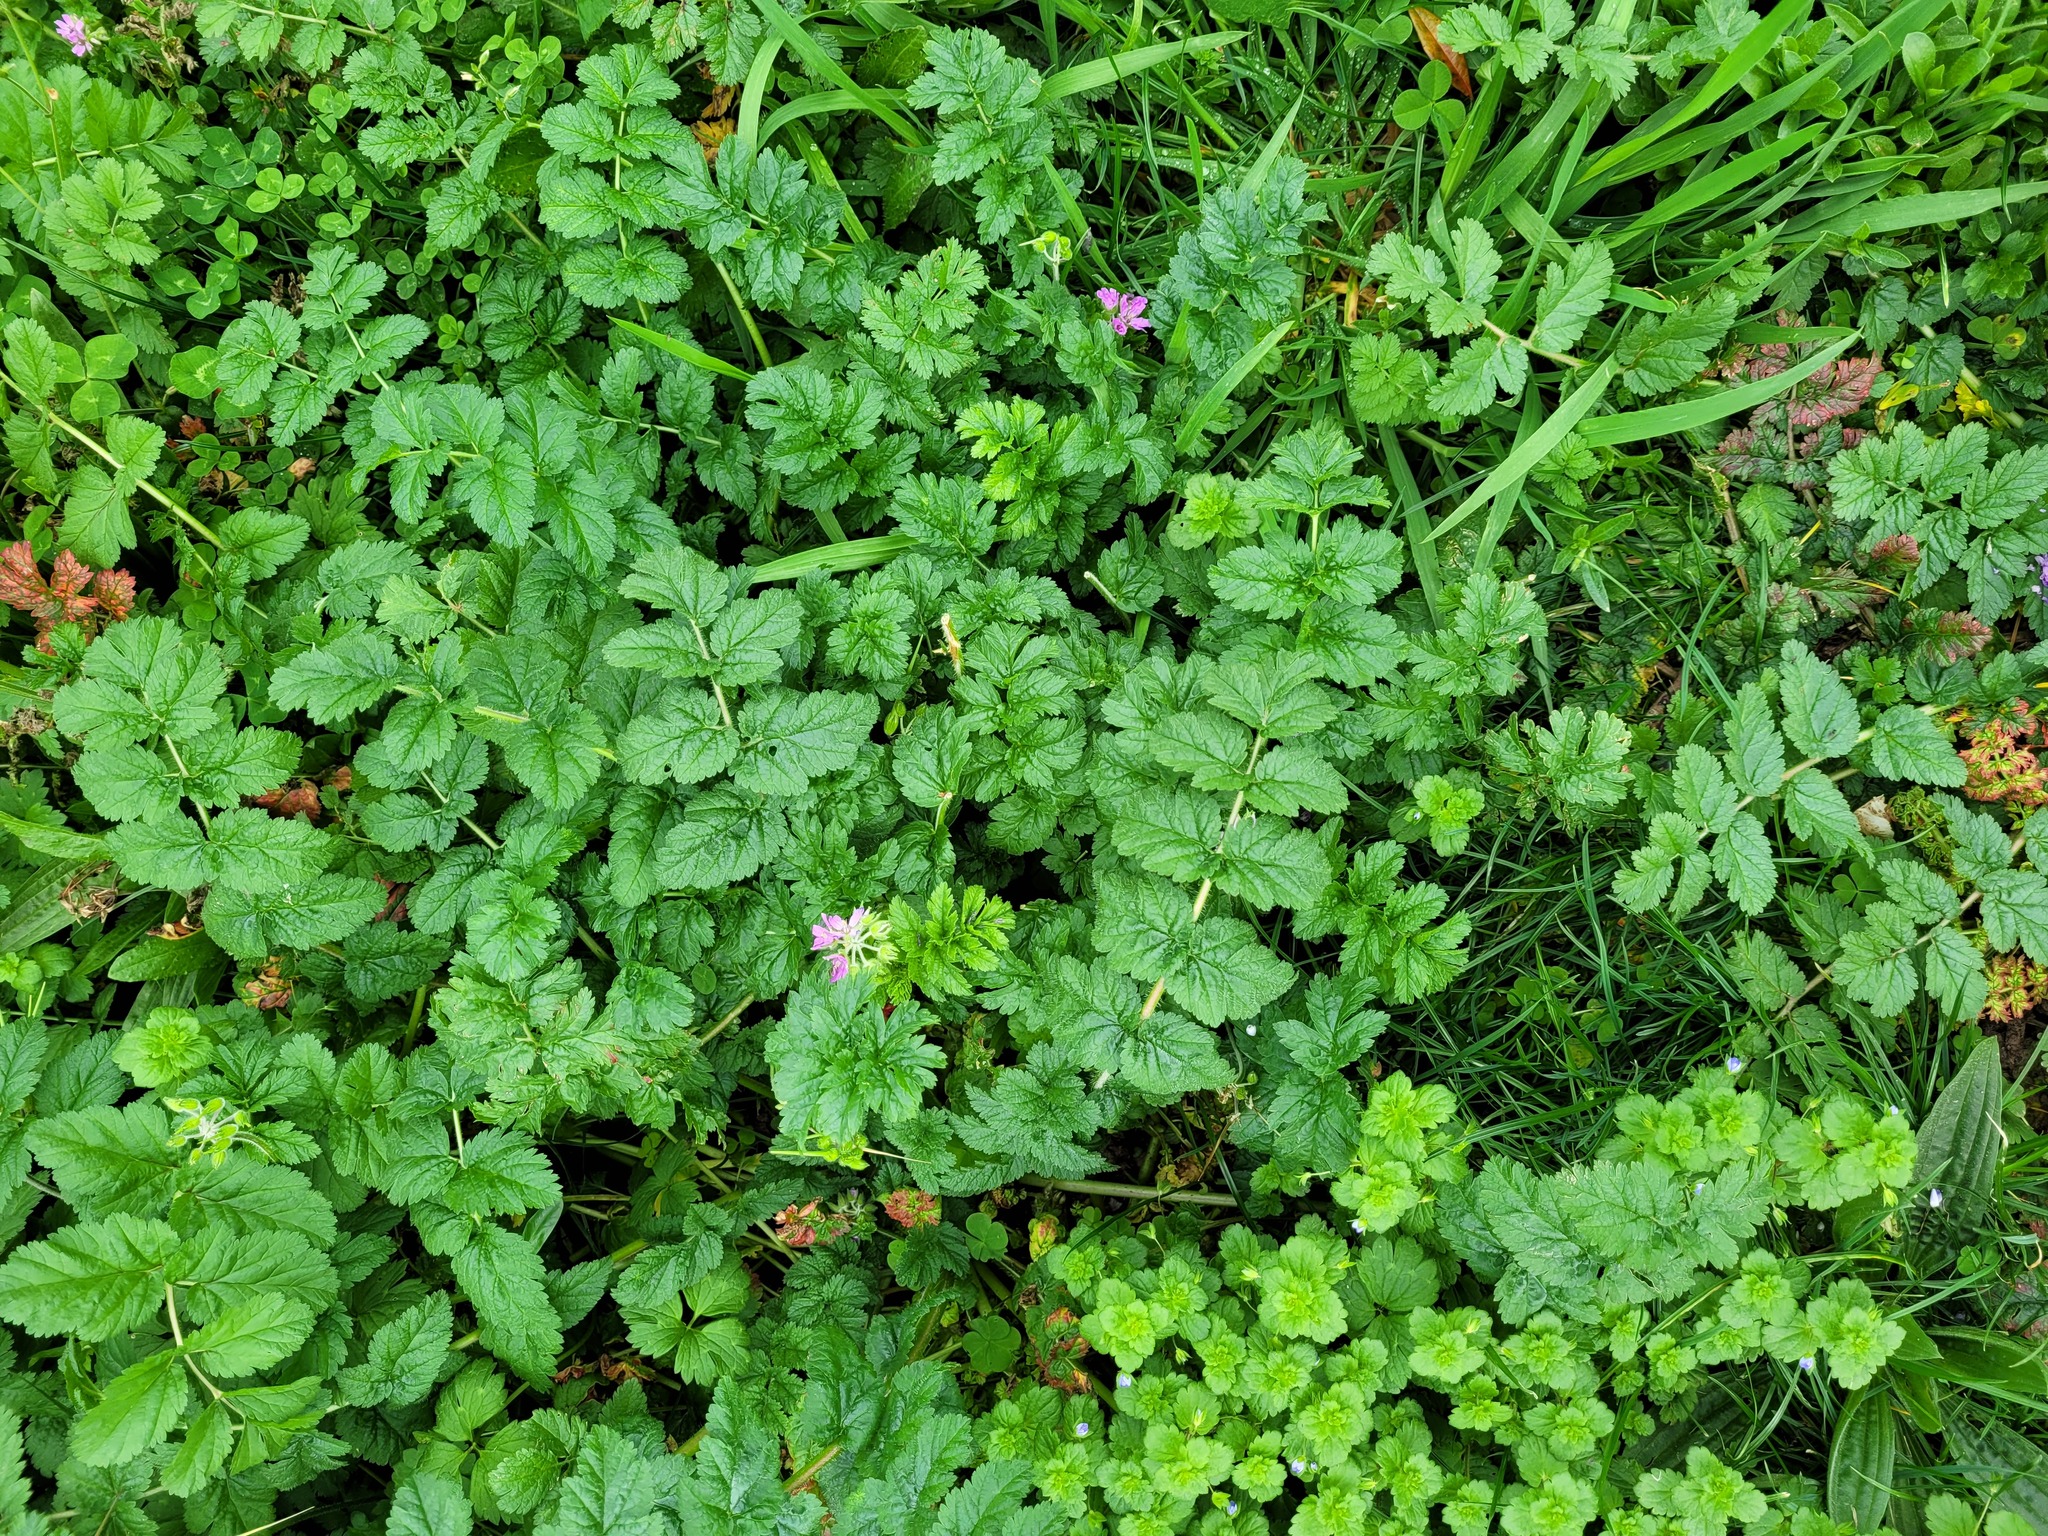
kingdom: Plantae
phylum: Tracheophyta
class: Magnoliopsida
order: Geraniales
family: Geraniaceae
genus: Erodium
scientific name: Erodium moschatum
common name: Musk stork's-bill
